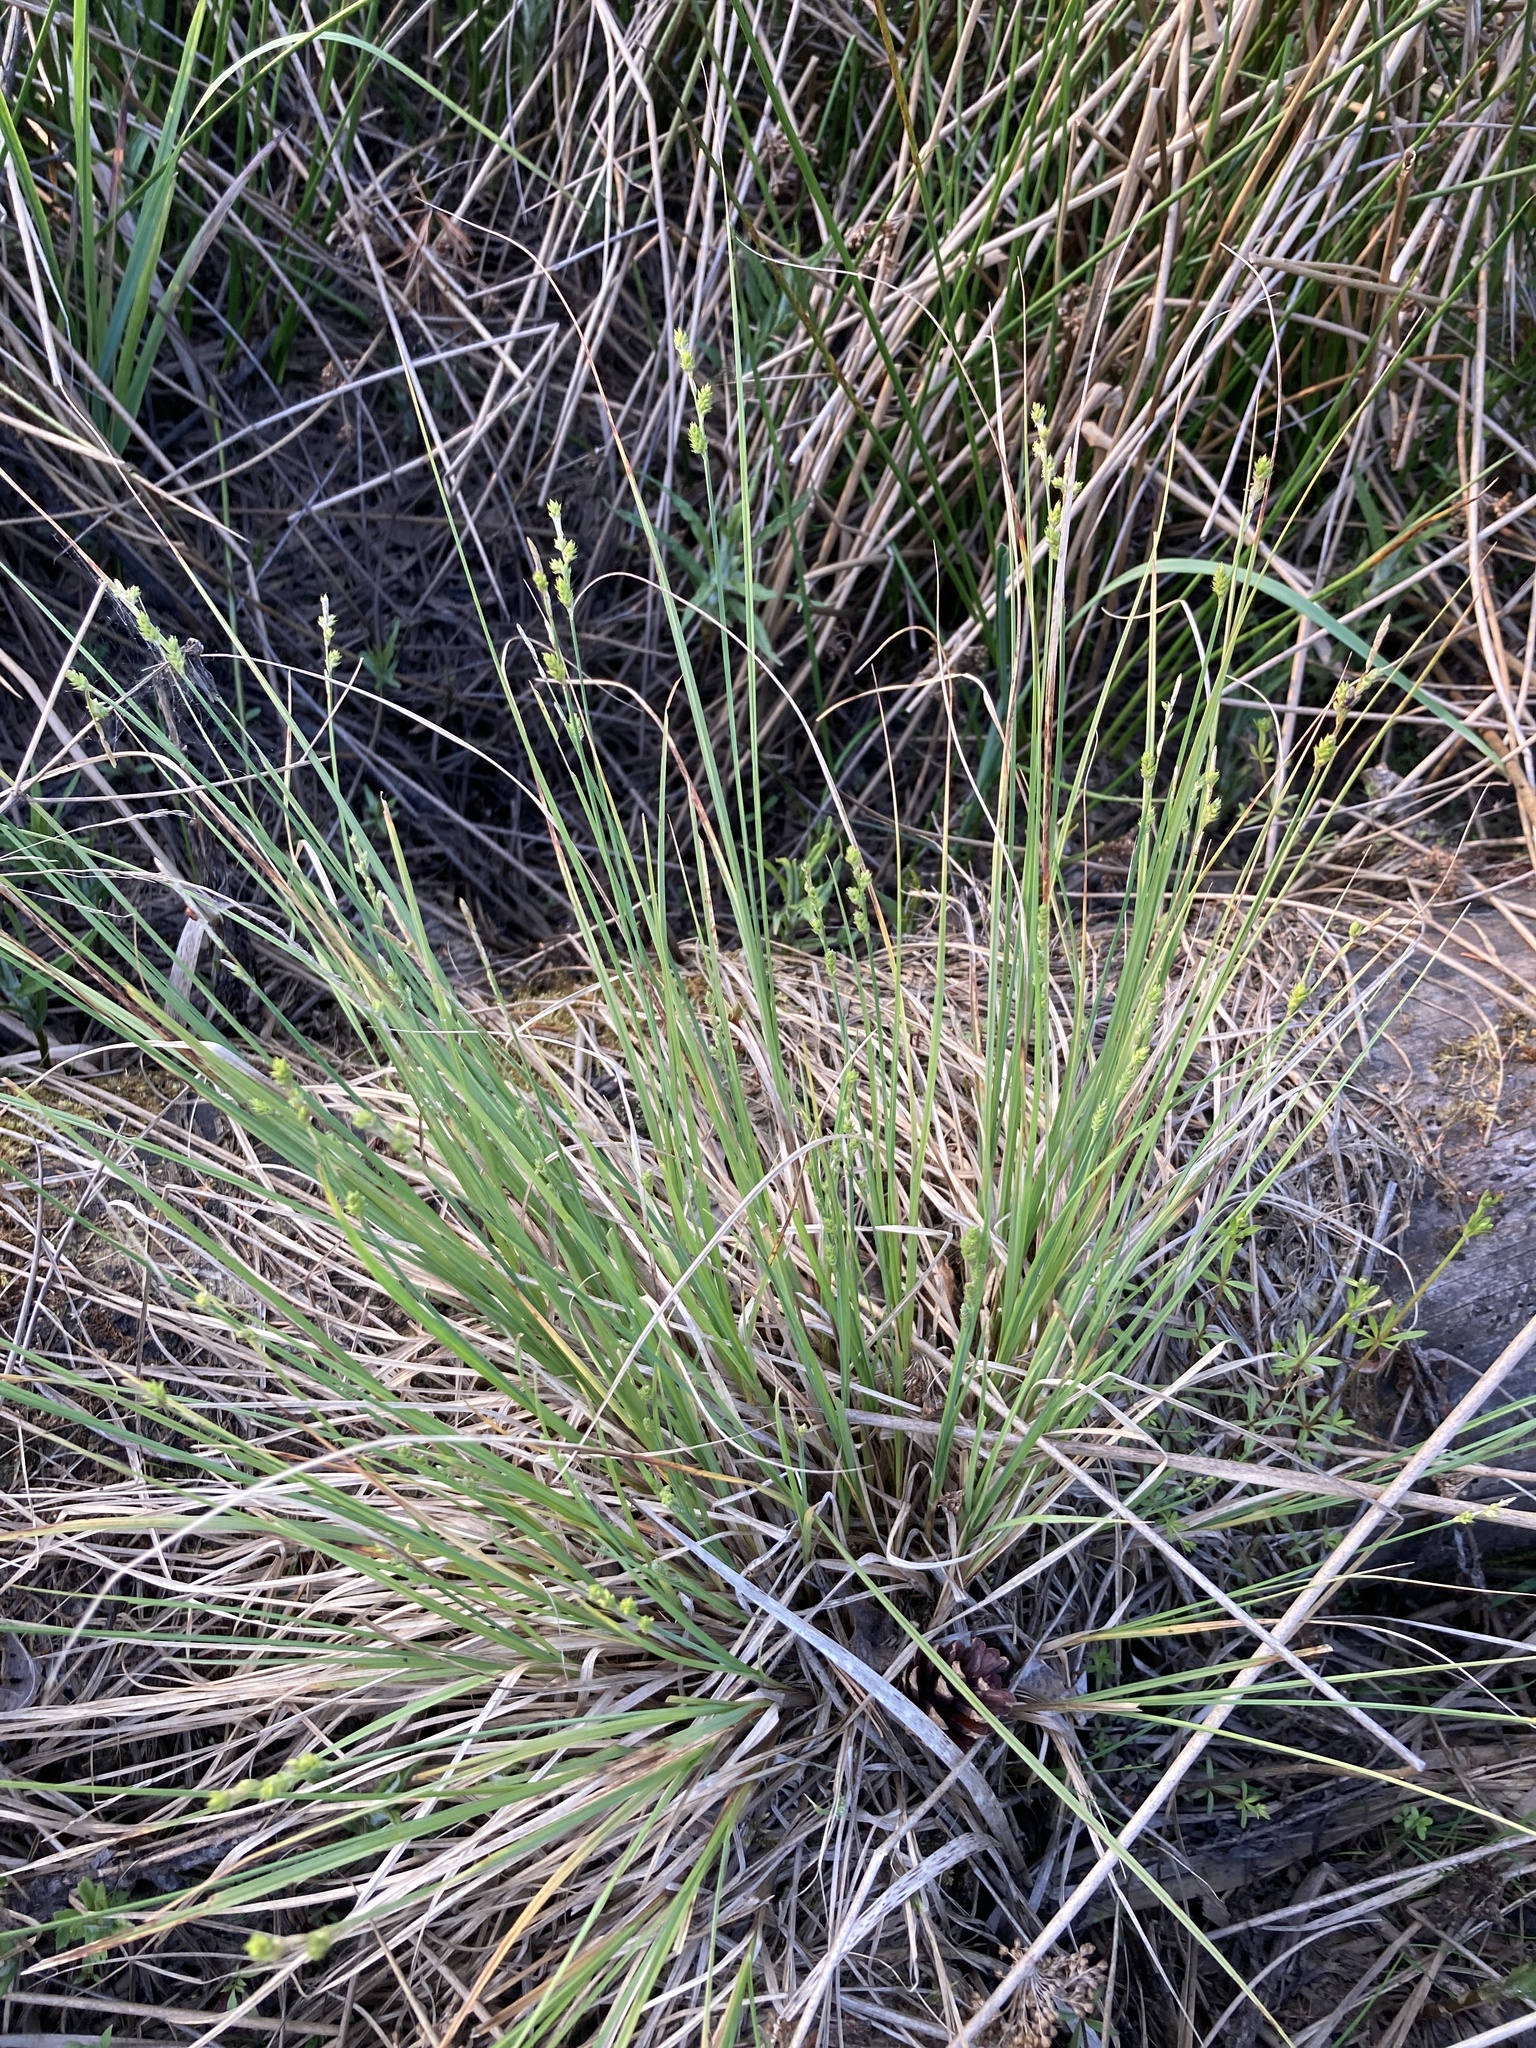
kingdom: Plantae
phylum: Tracheophyta
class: Liliopsida
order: Poales
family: Cyperaceae
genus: Carex
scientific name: Carex canescens
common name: White sedge
